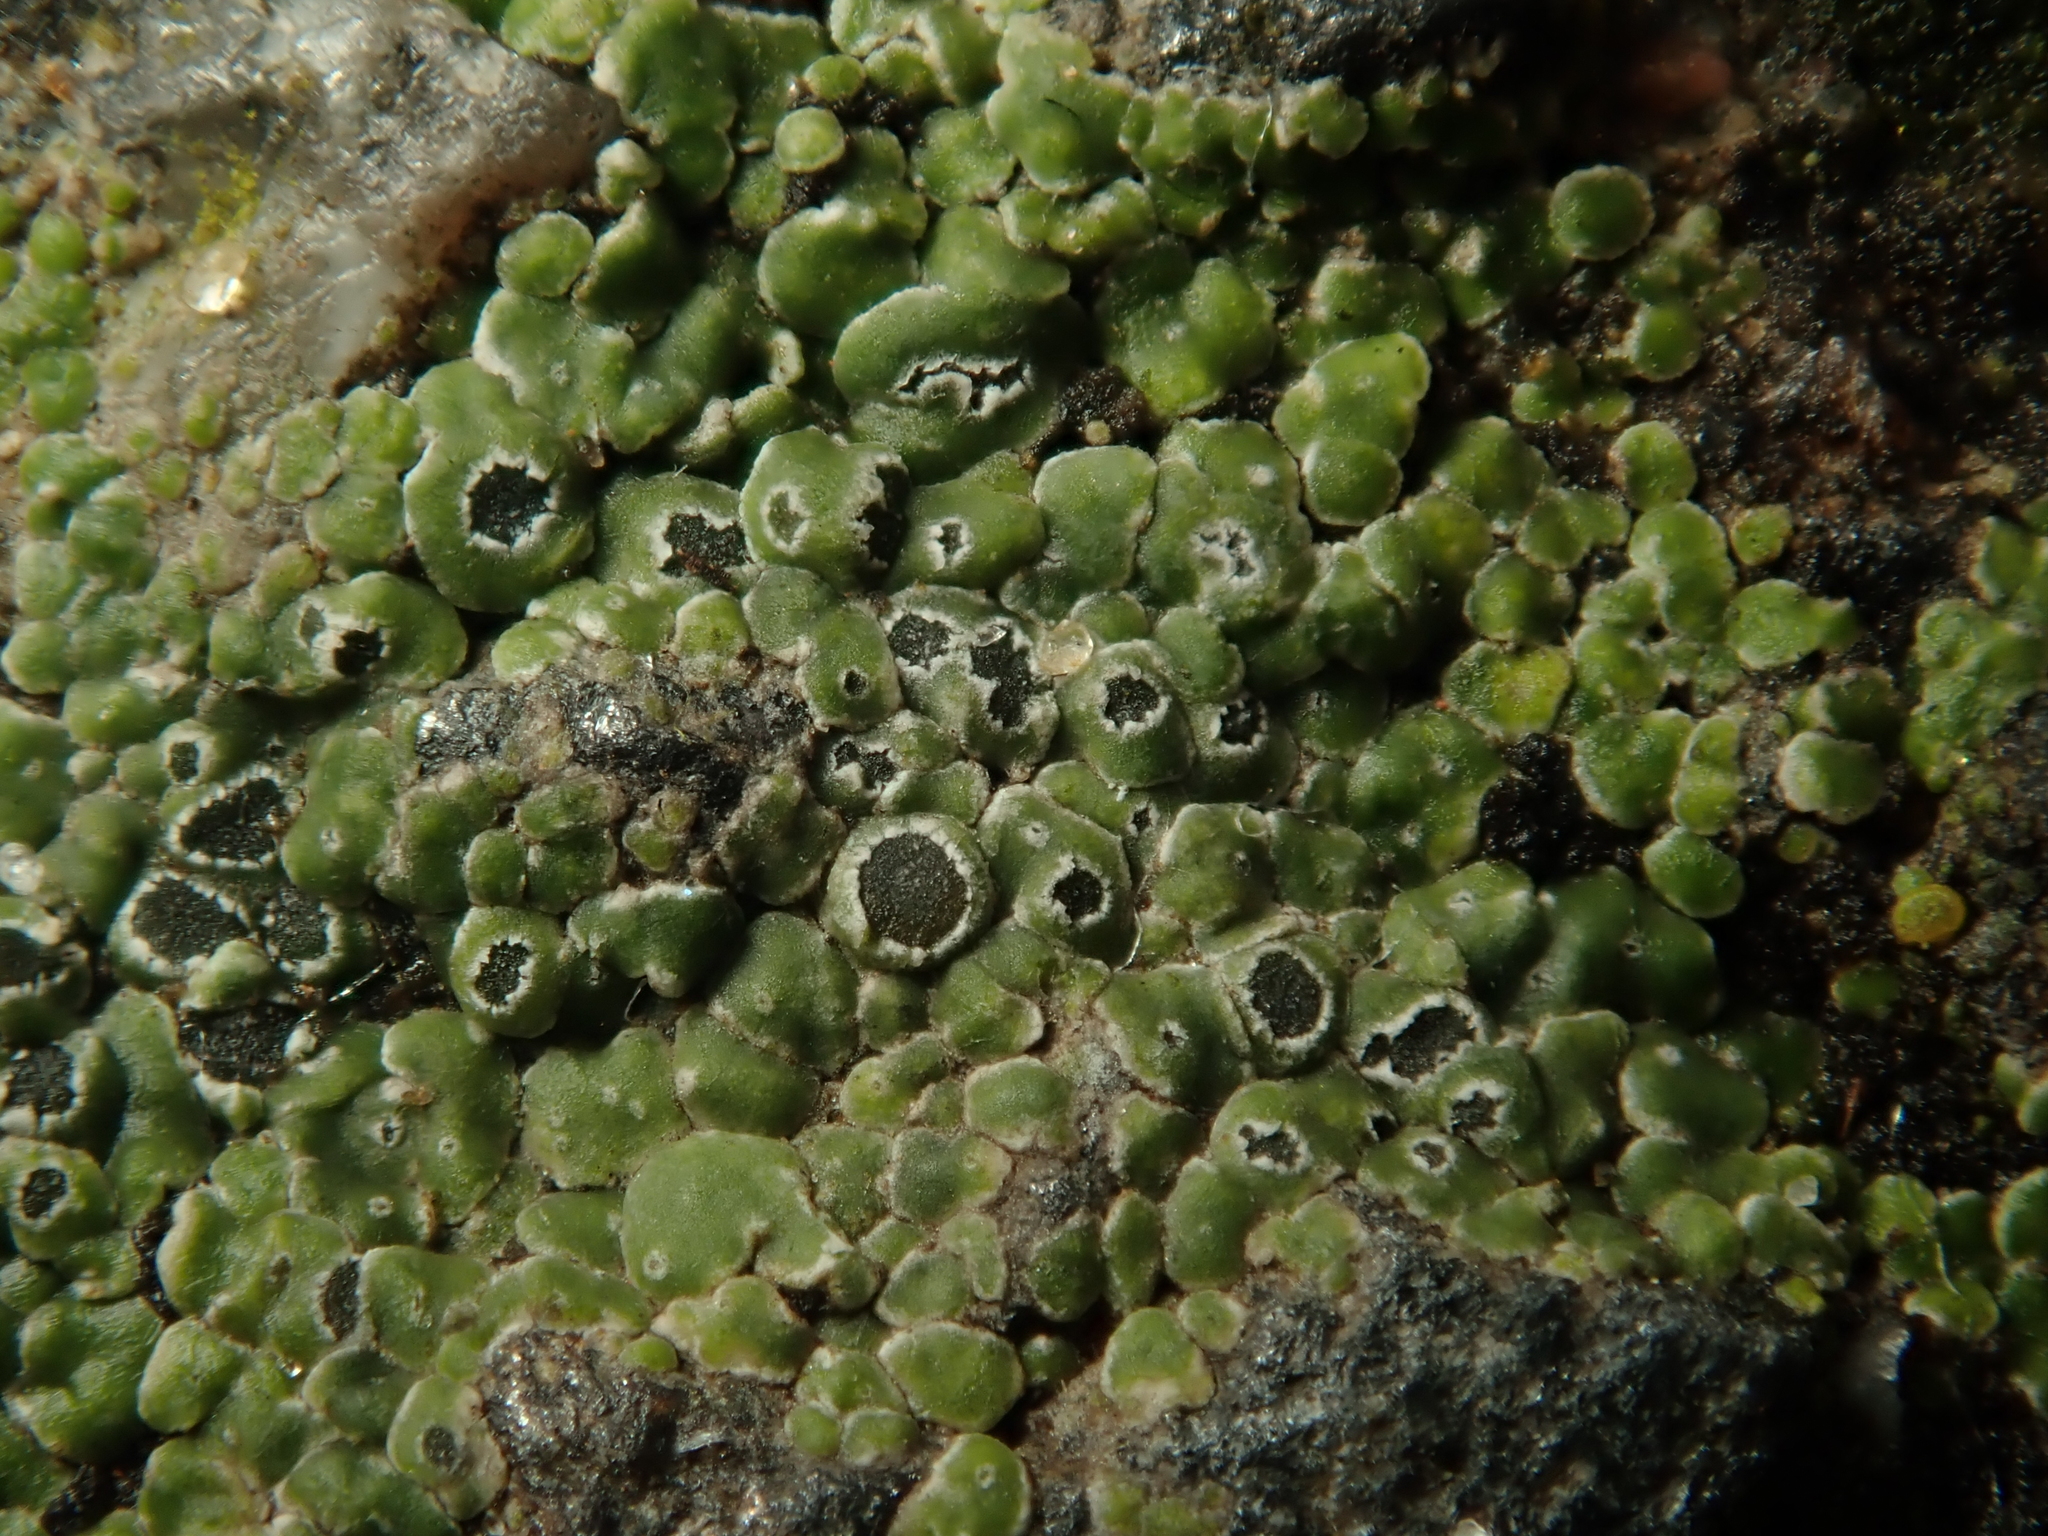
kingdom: Fungi
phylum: Ascomycota
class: Lecanoromycetes
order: Pertusariales
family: Megasporaceae
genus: Circinaria
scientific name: Circinaria contorta
